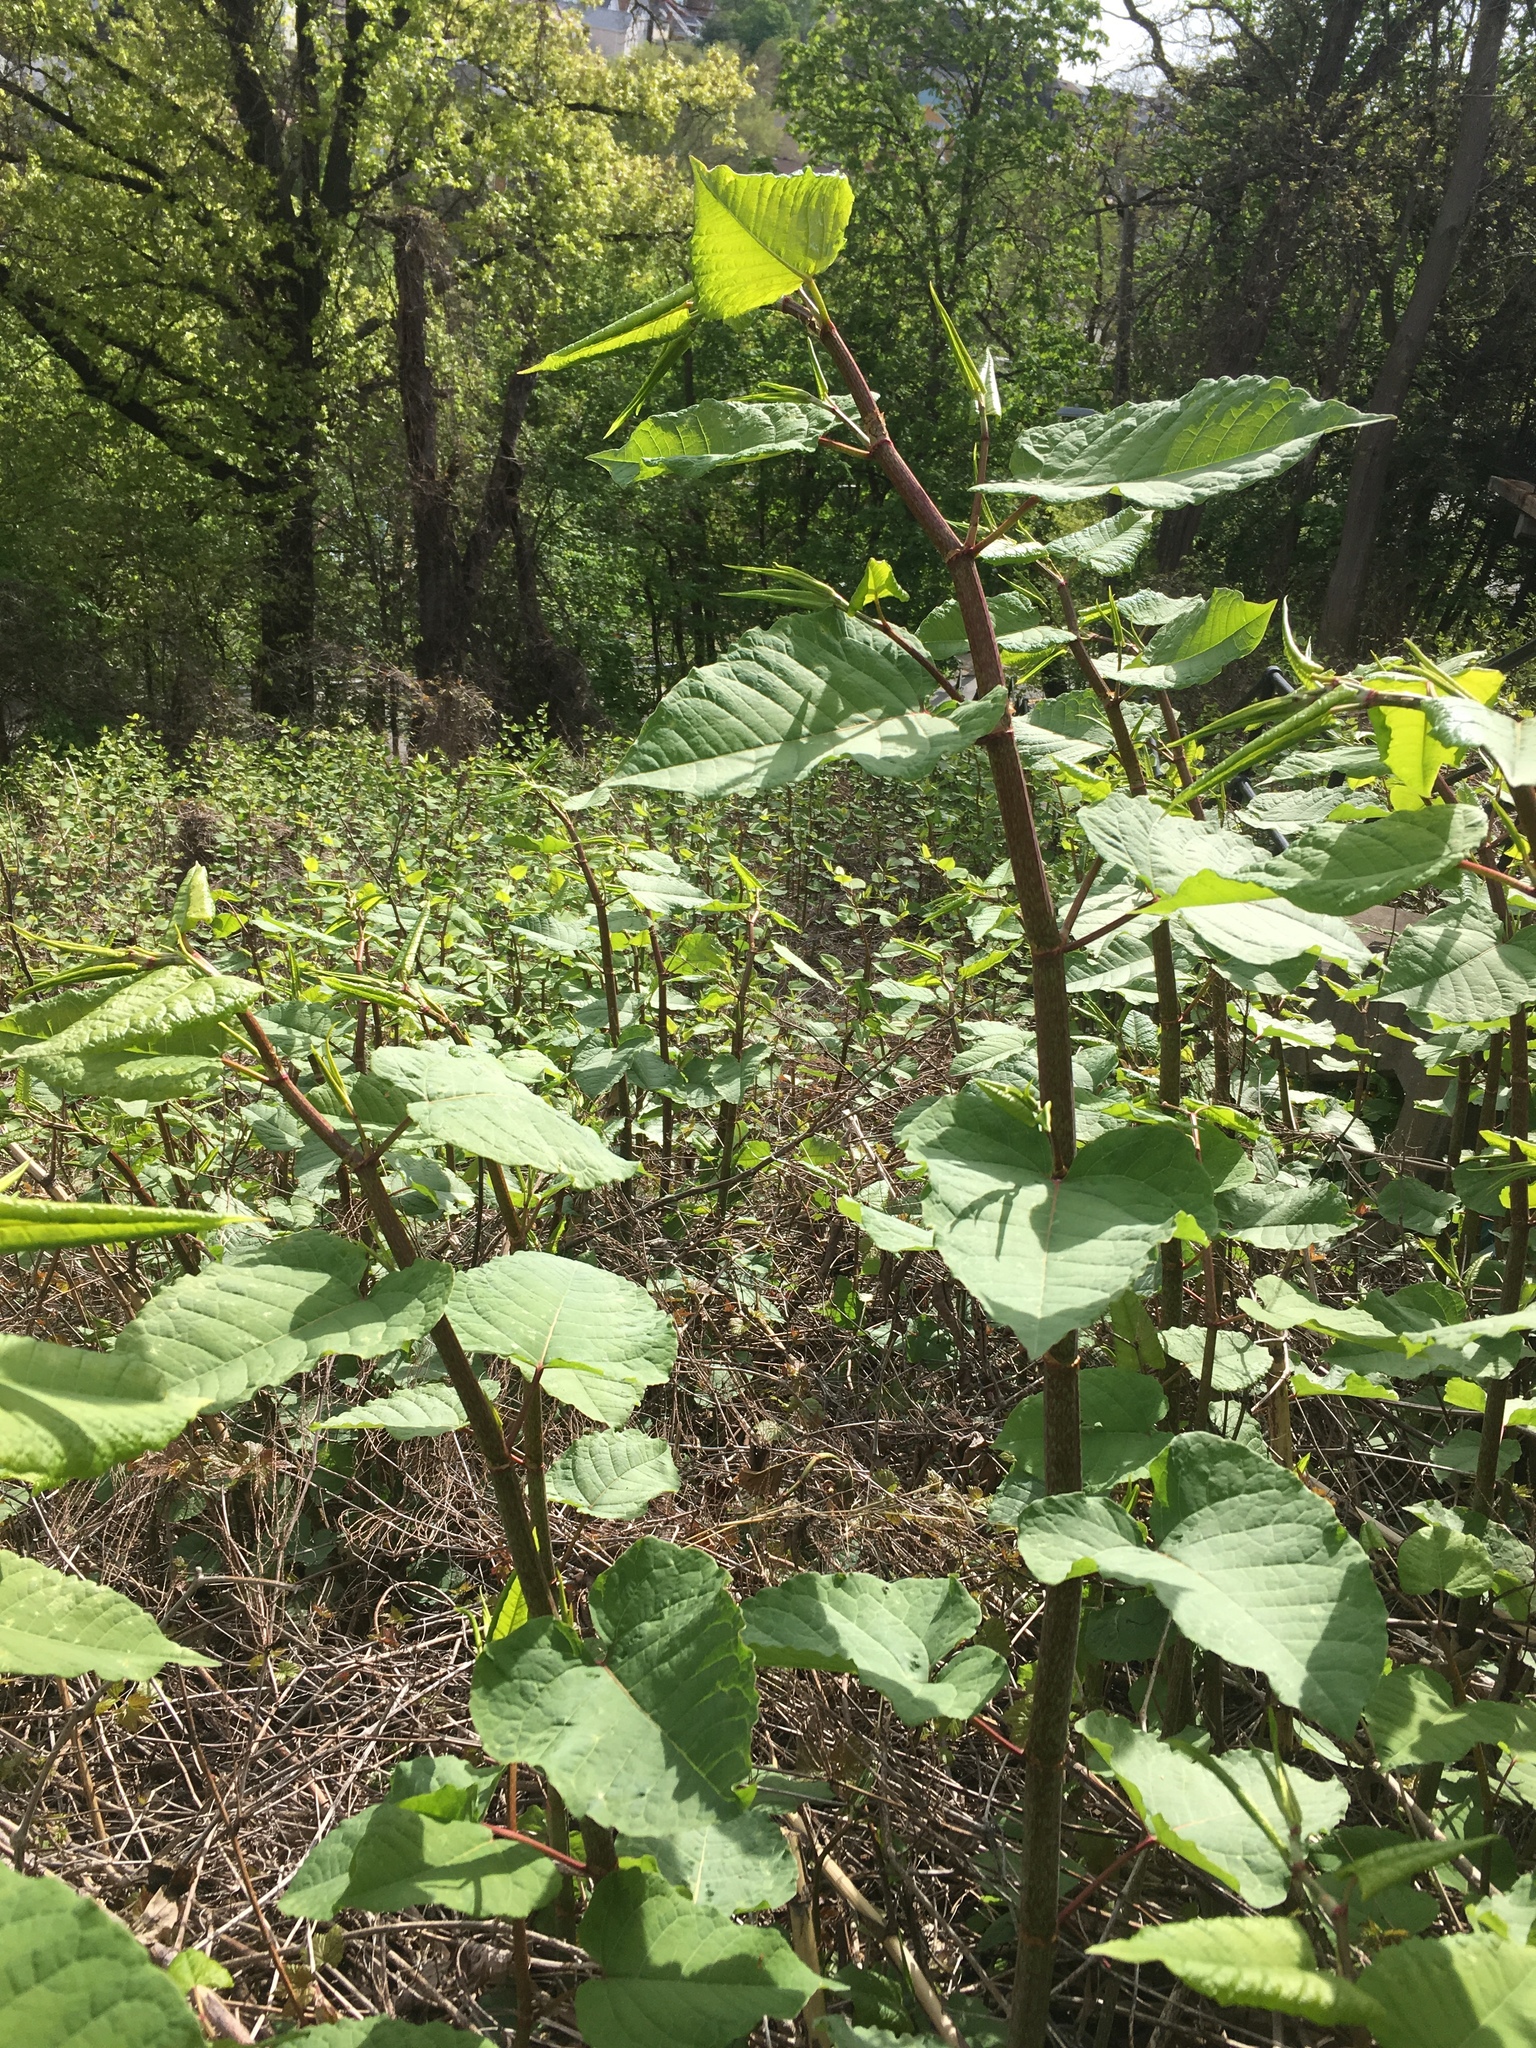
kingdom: Plantae
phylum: Tracheophyta
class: Magnoliopsida
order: Caryophyllales
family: Polygonaceae
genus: Reynoutria
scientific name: Reynoutria japonica
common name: Japanese knotweed
